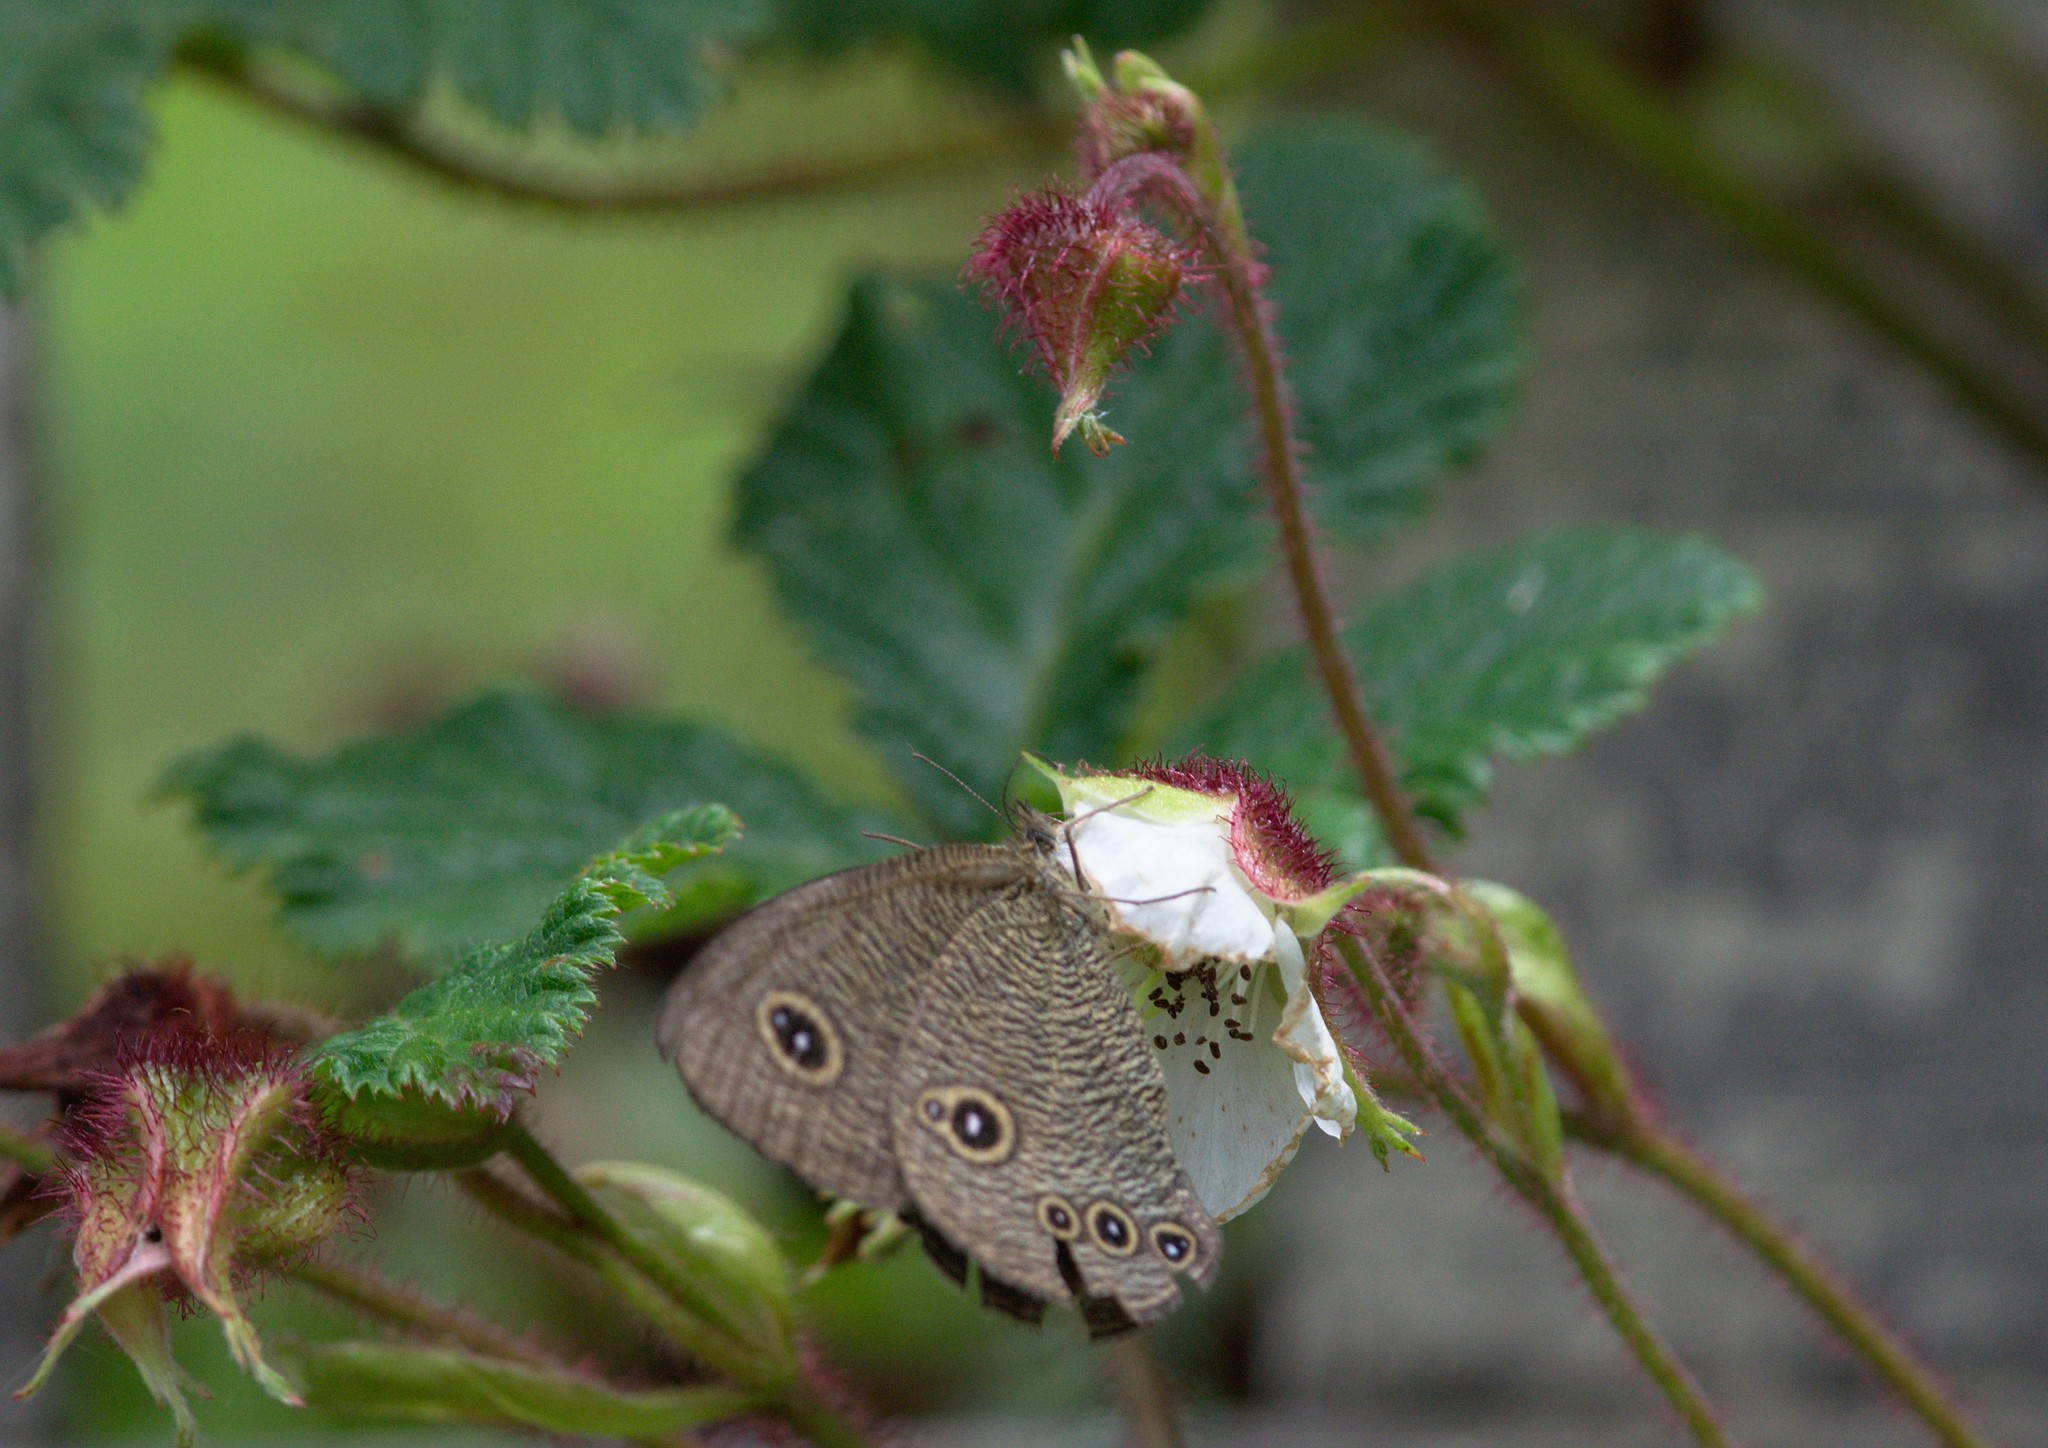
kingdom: Animalia
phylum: Arthropoda
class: Insecta
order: Lepidoptera
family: Nymphalidae
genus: Ypthima
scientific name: Ypthima nikaea
